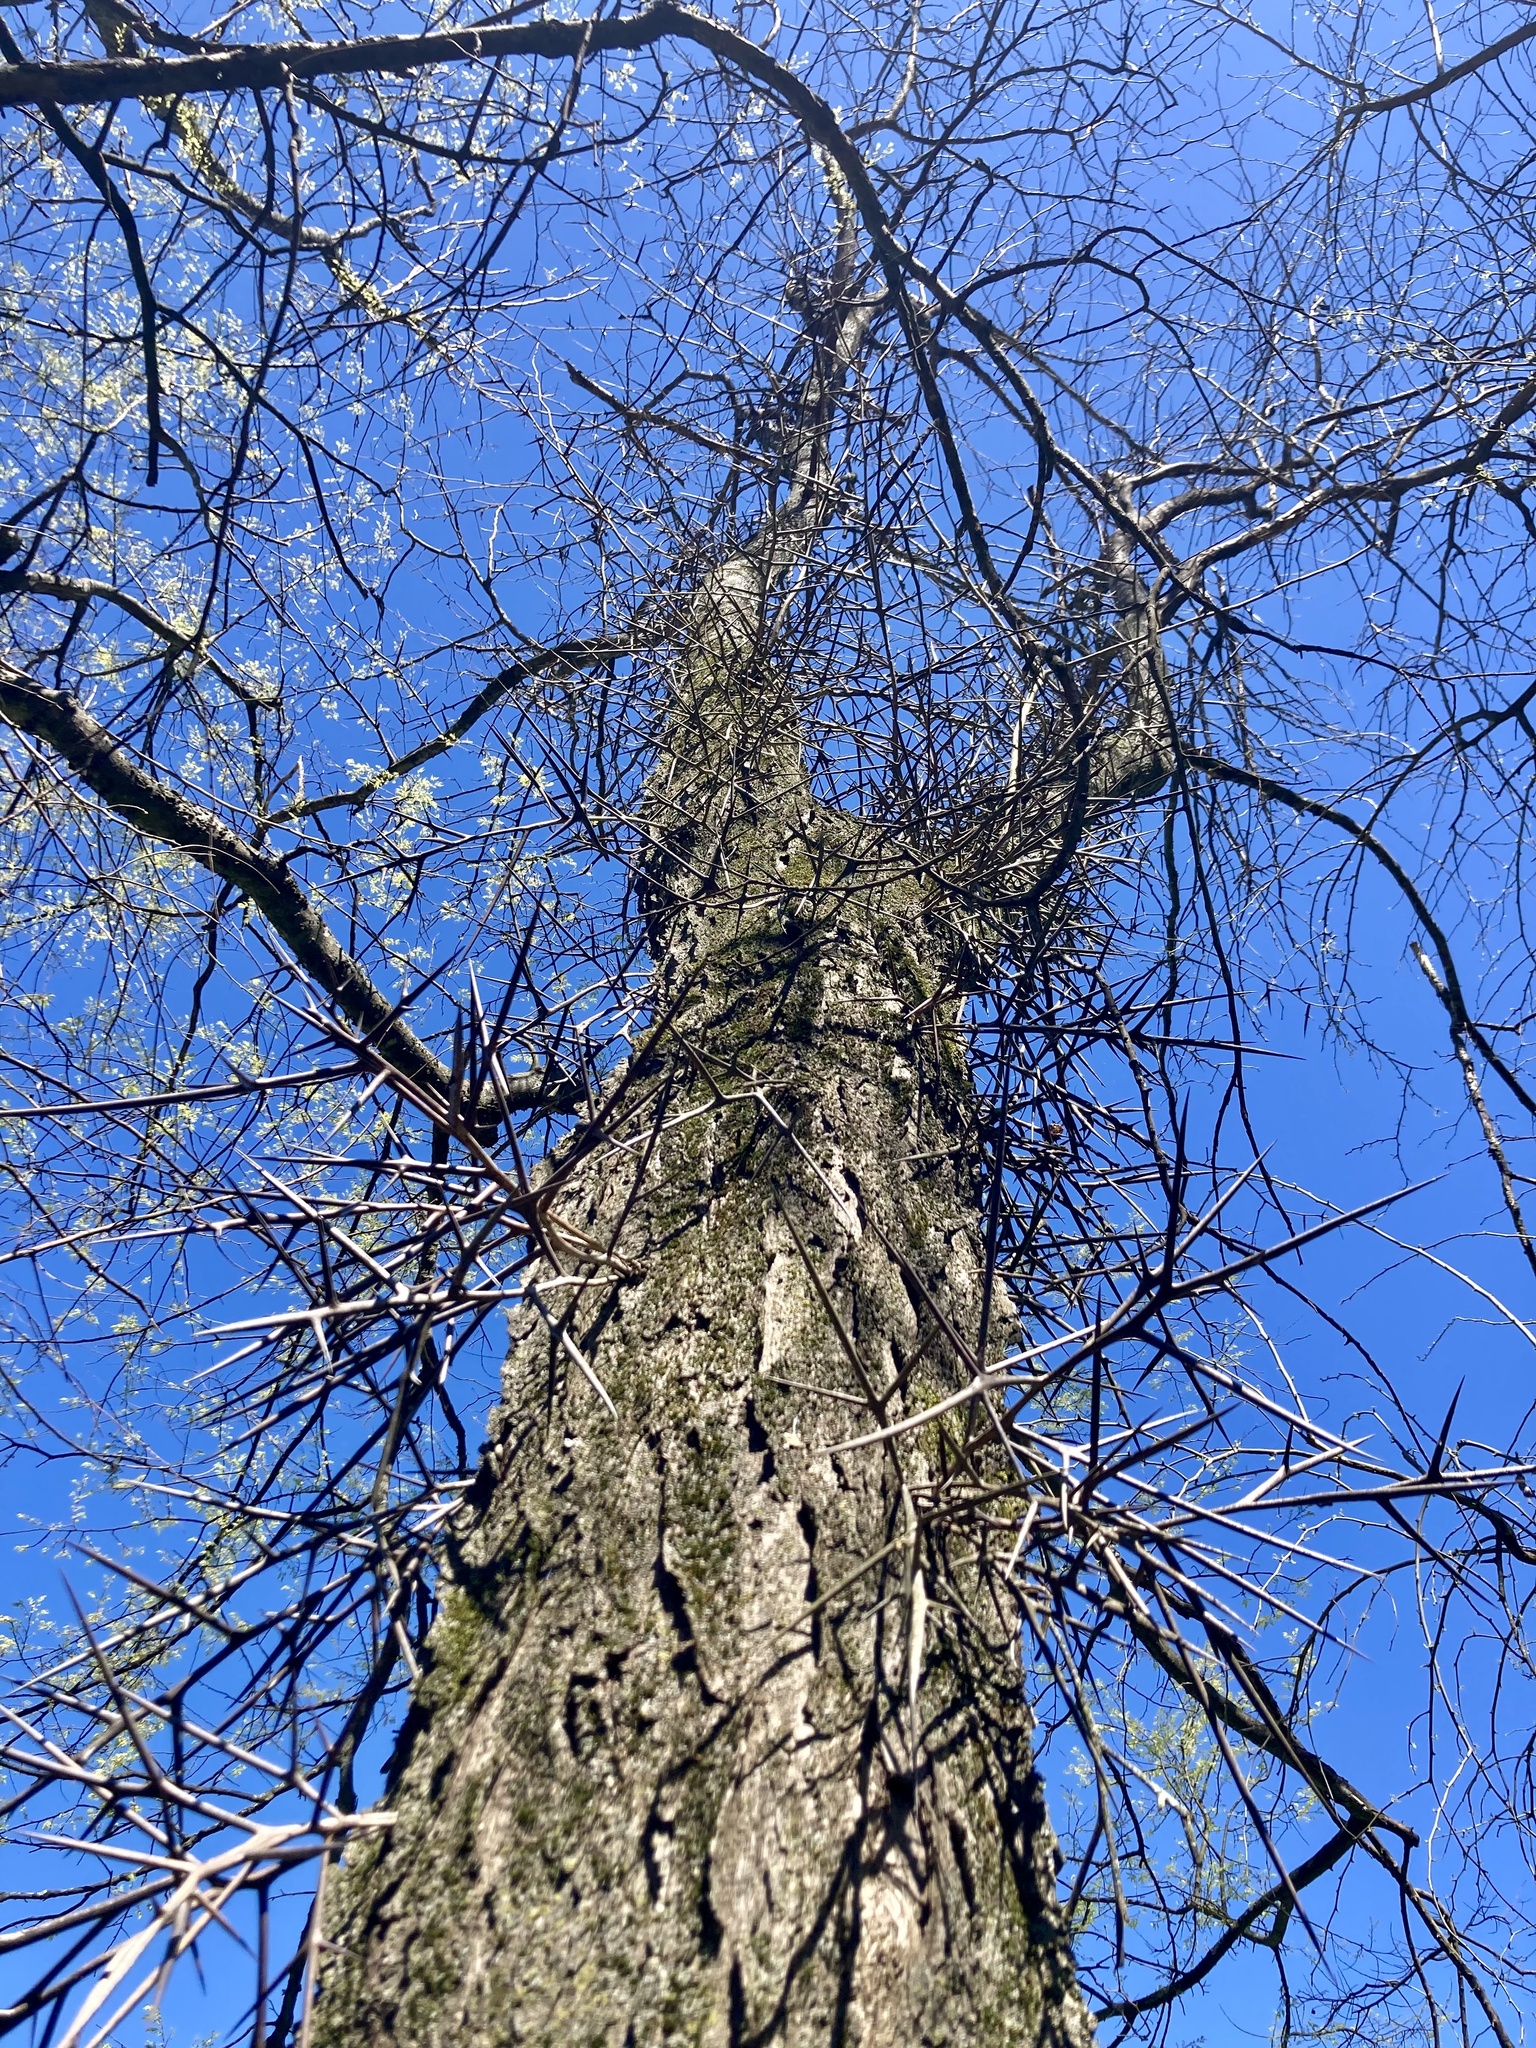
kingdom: Plantae
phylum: Tracheophyta
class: Magnoliopsida
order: Fabales
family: Fabaceae
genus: Gleditsia
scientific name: Gleditsia triacanthos
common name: Common honeylocust
